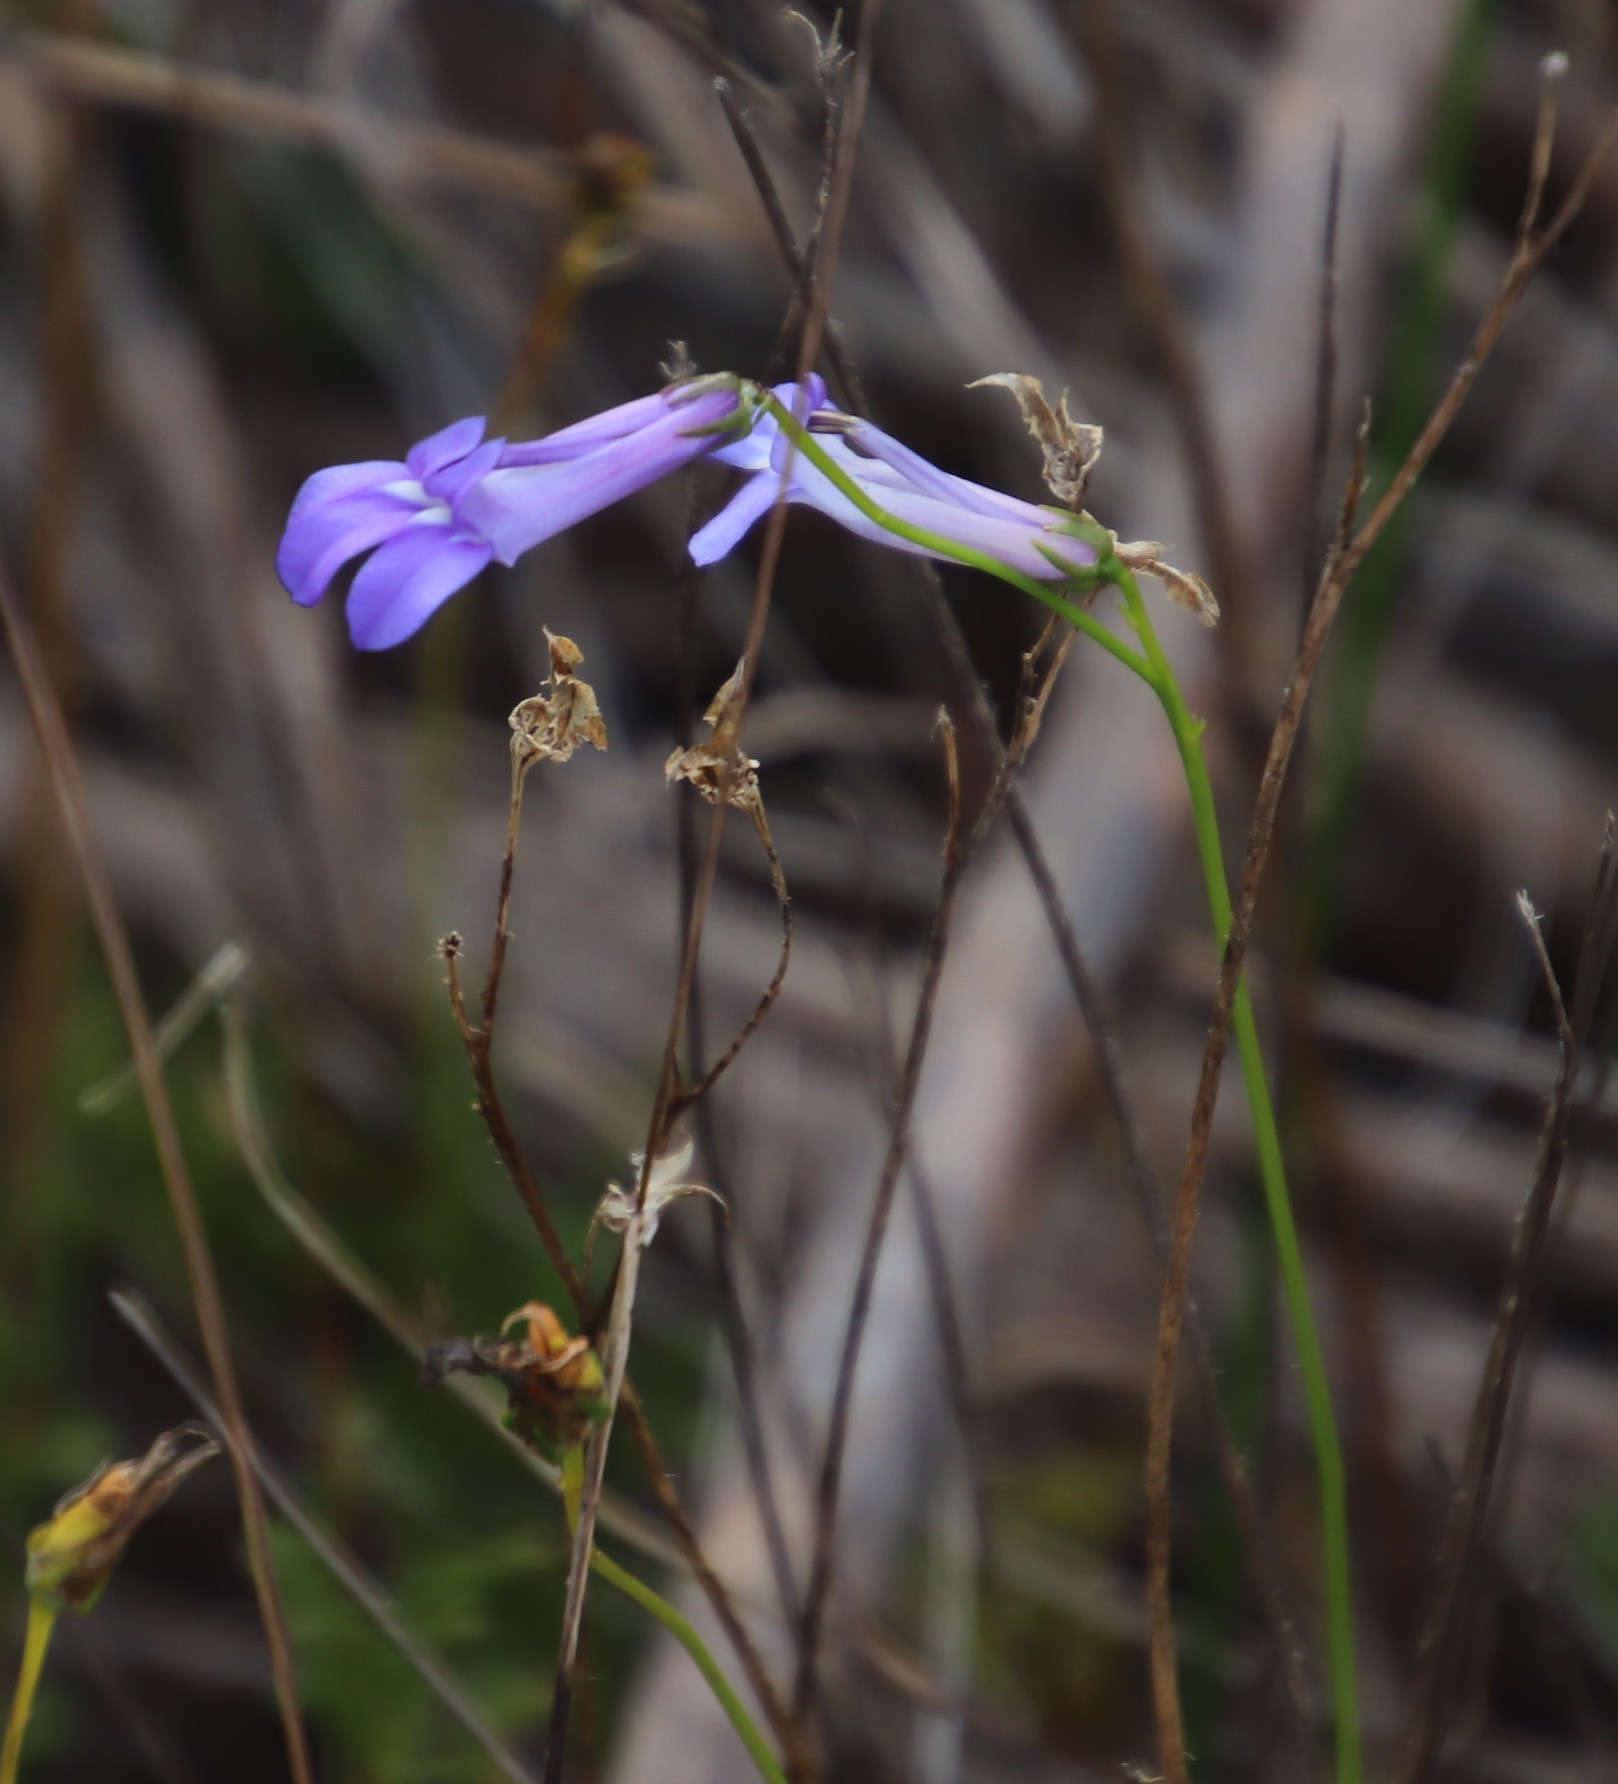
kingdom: Plantae
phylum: Tracheophyta
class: Magnoliopsida
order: Asterales
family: Campanulaceae
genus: Lobelia
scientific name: Lobelia coronopifolia
